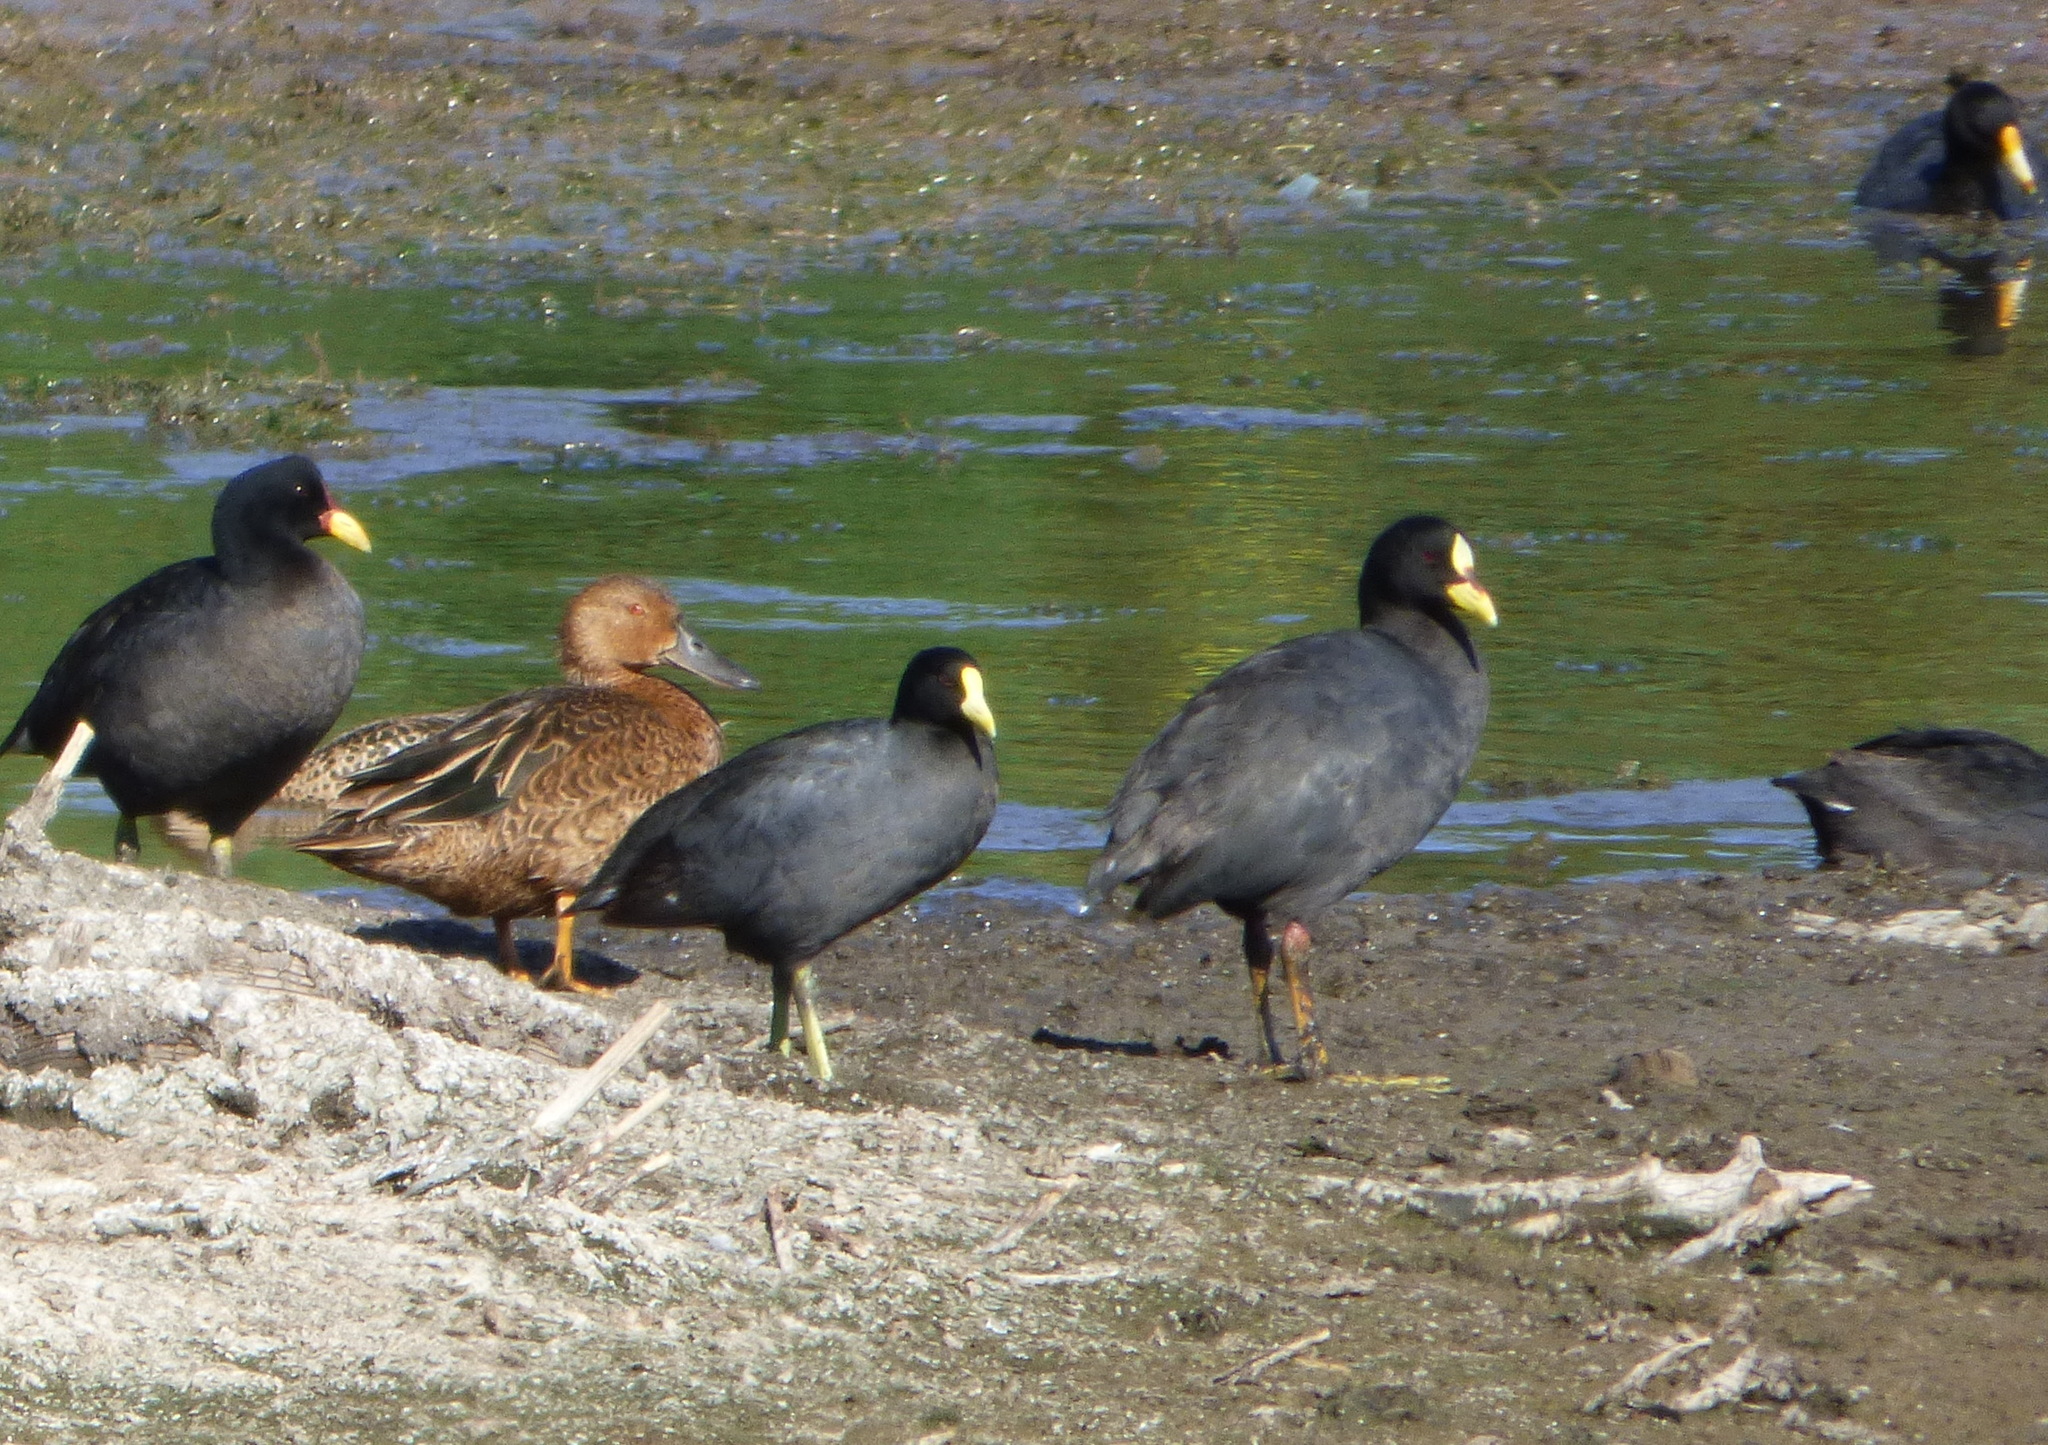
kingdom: Animalia
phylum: Chordata
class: Aves
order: Gruiformes
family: Rallidae
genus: Fulica
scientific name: Fulica armillata
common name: Red-gartered coot
